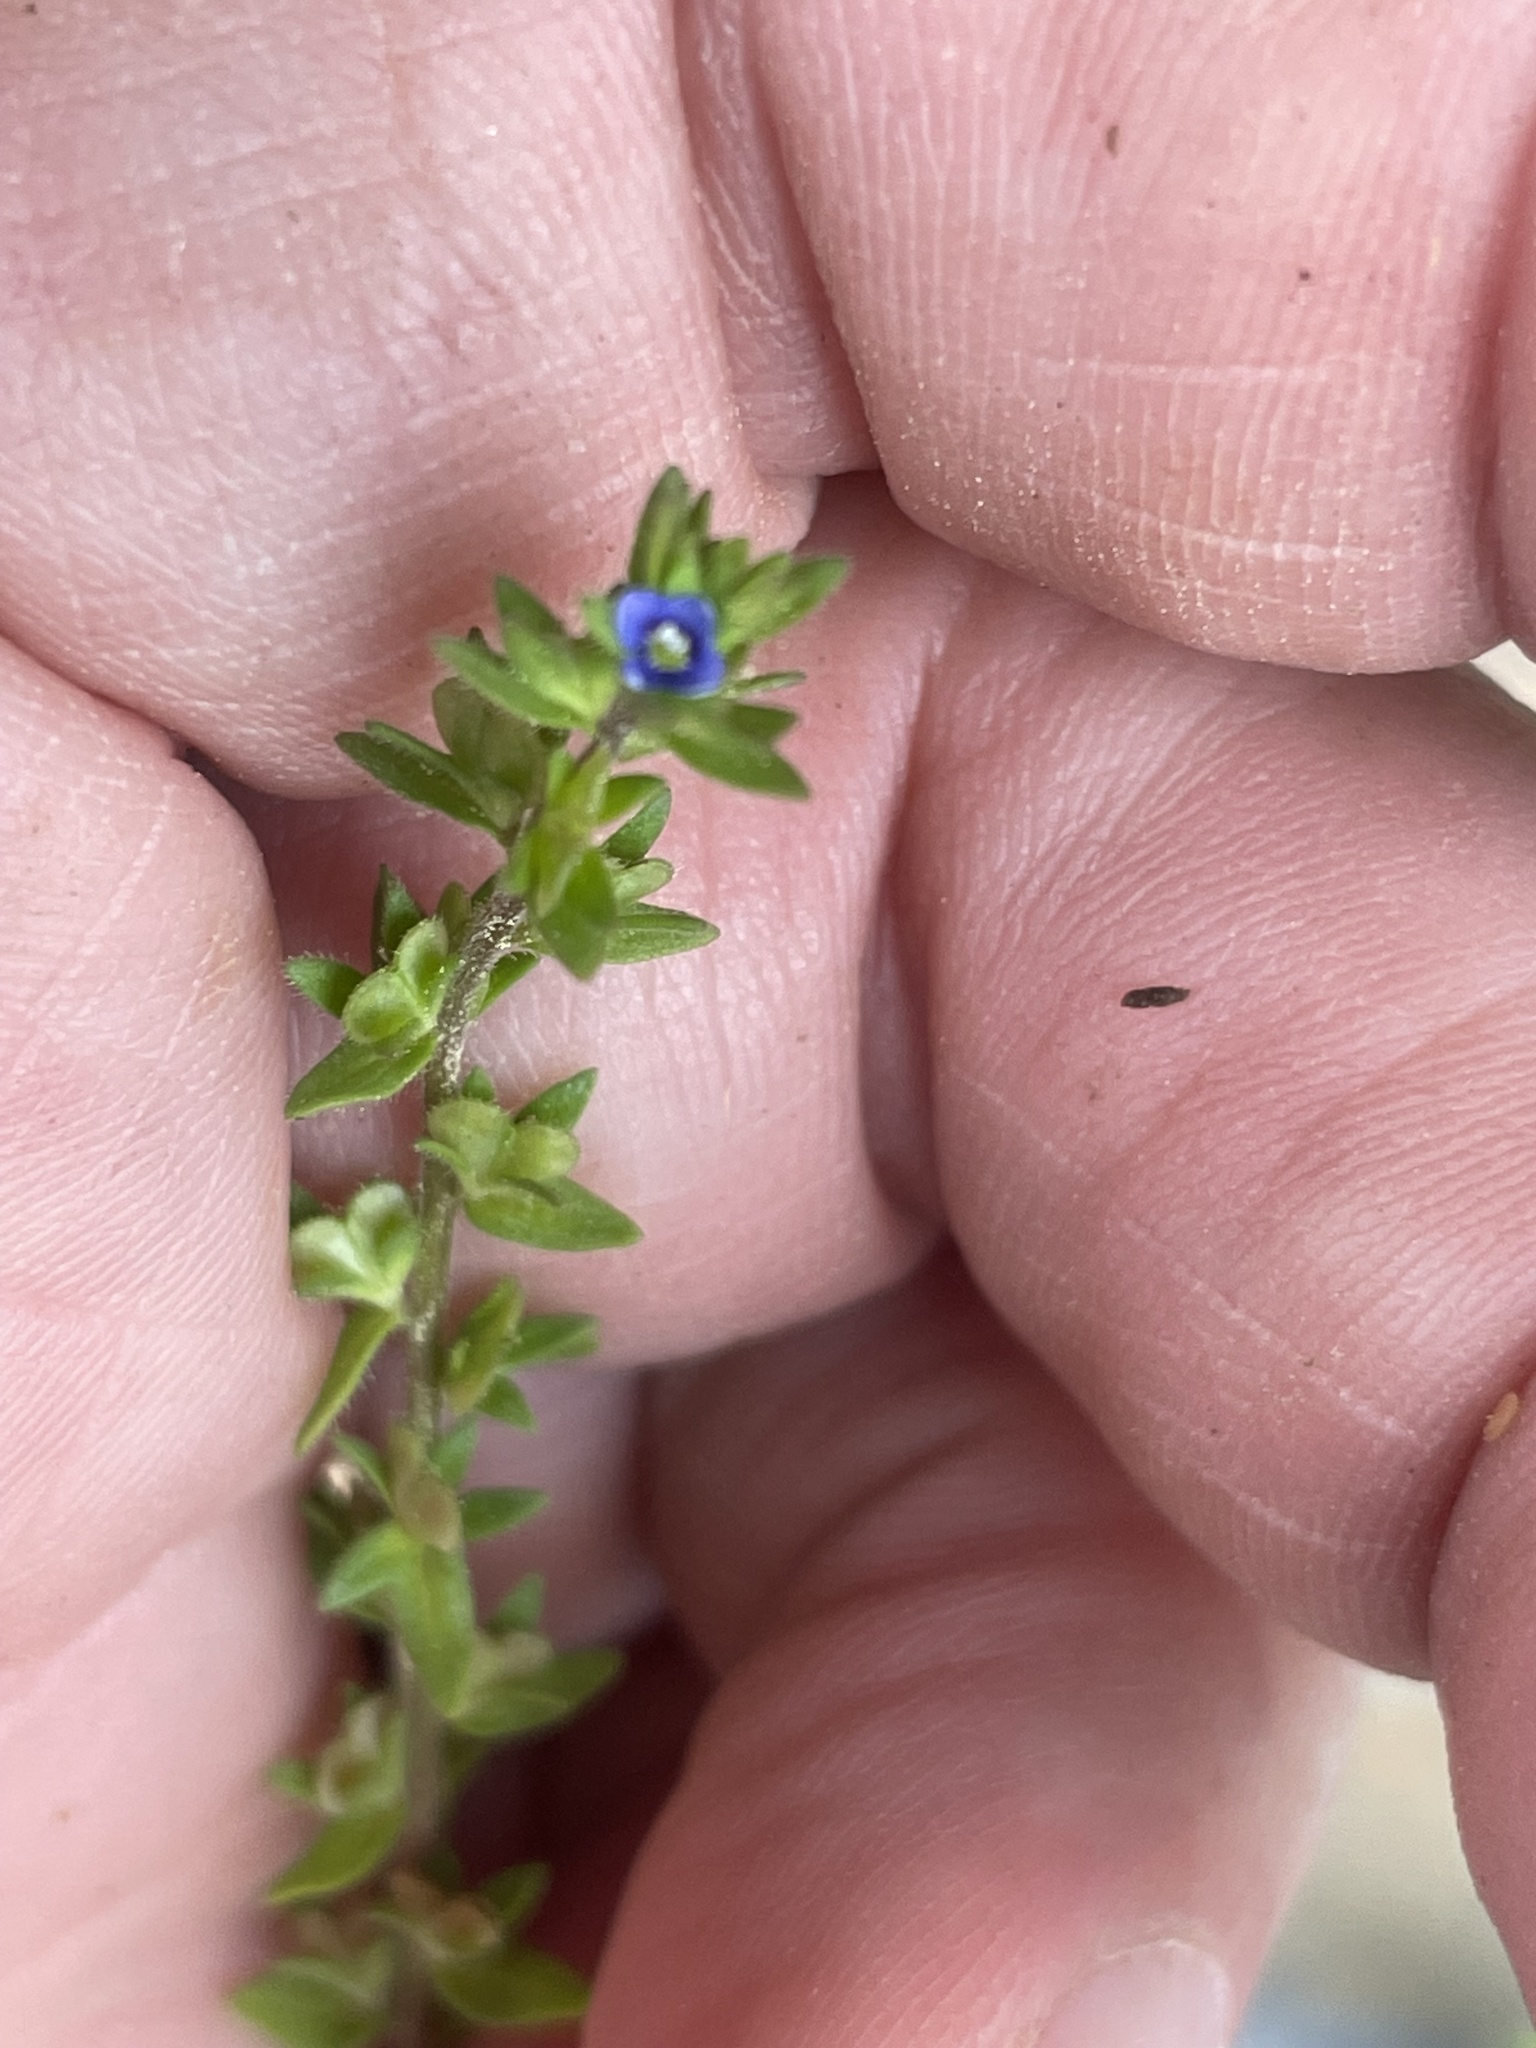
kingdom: Plantae
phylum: Tracheophyta
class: Magnoliopsida
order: Lamiales
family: Plantaginaceae
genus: Veronica
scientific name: Veronica arvensis
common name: Corn speedwell
